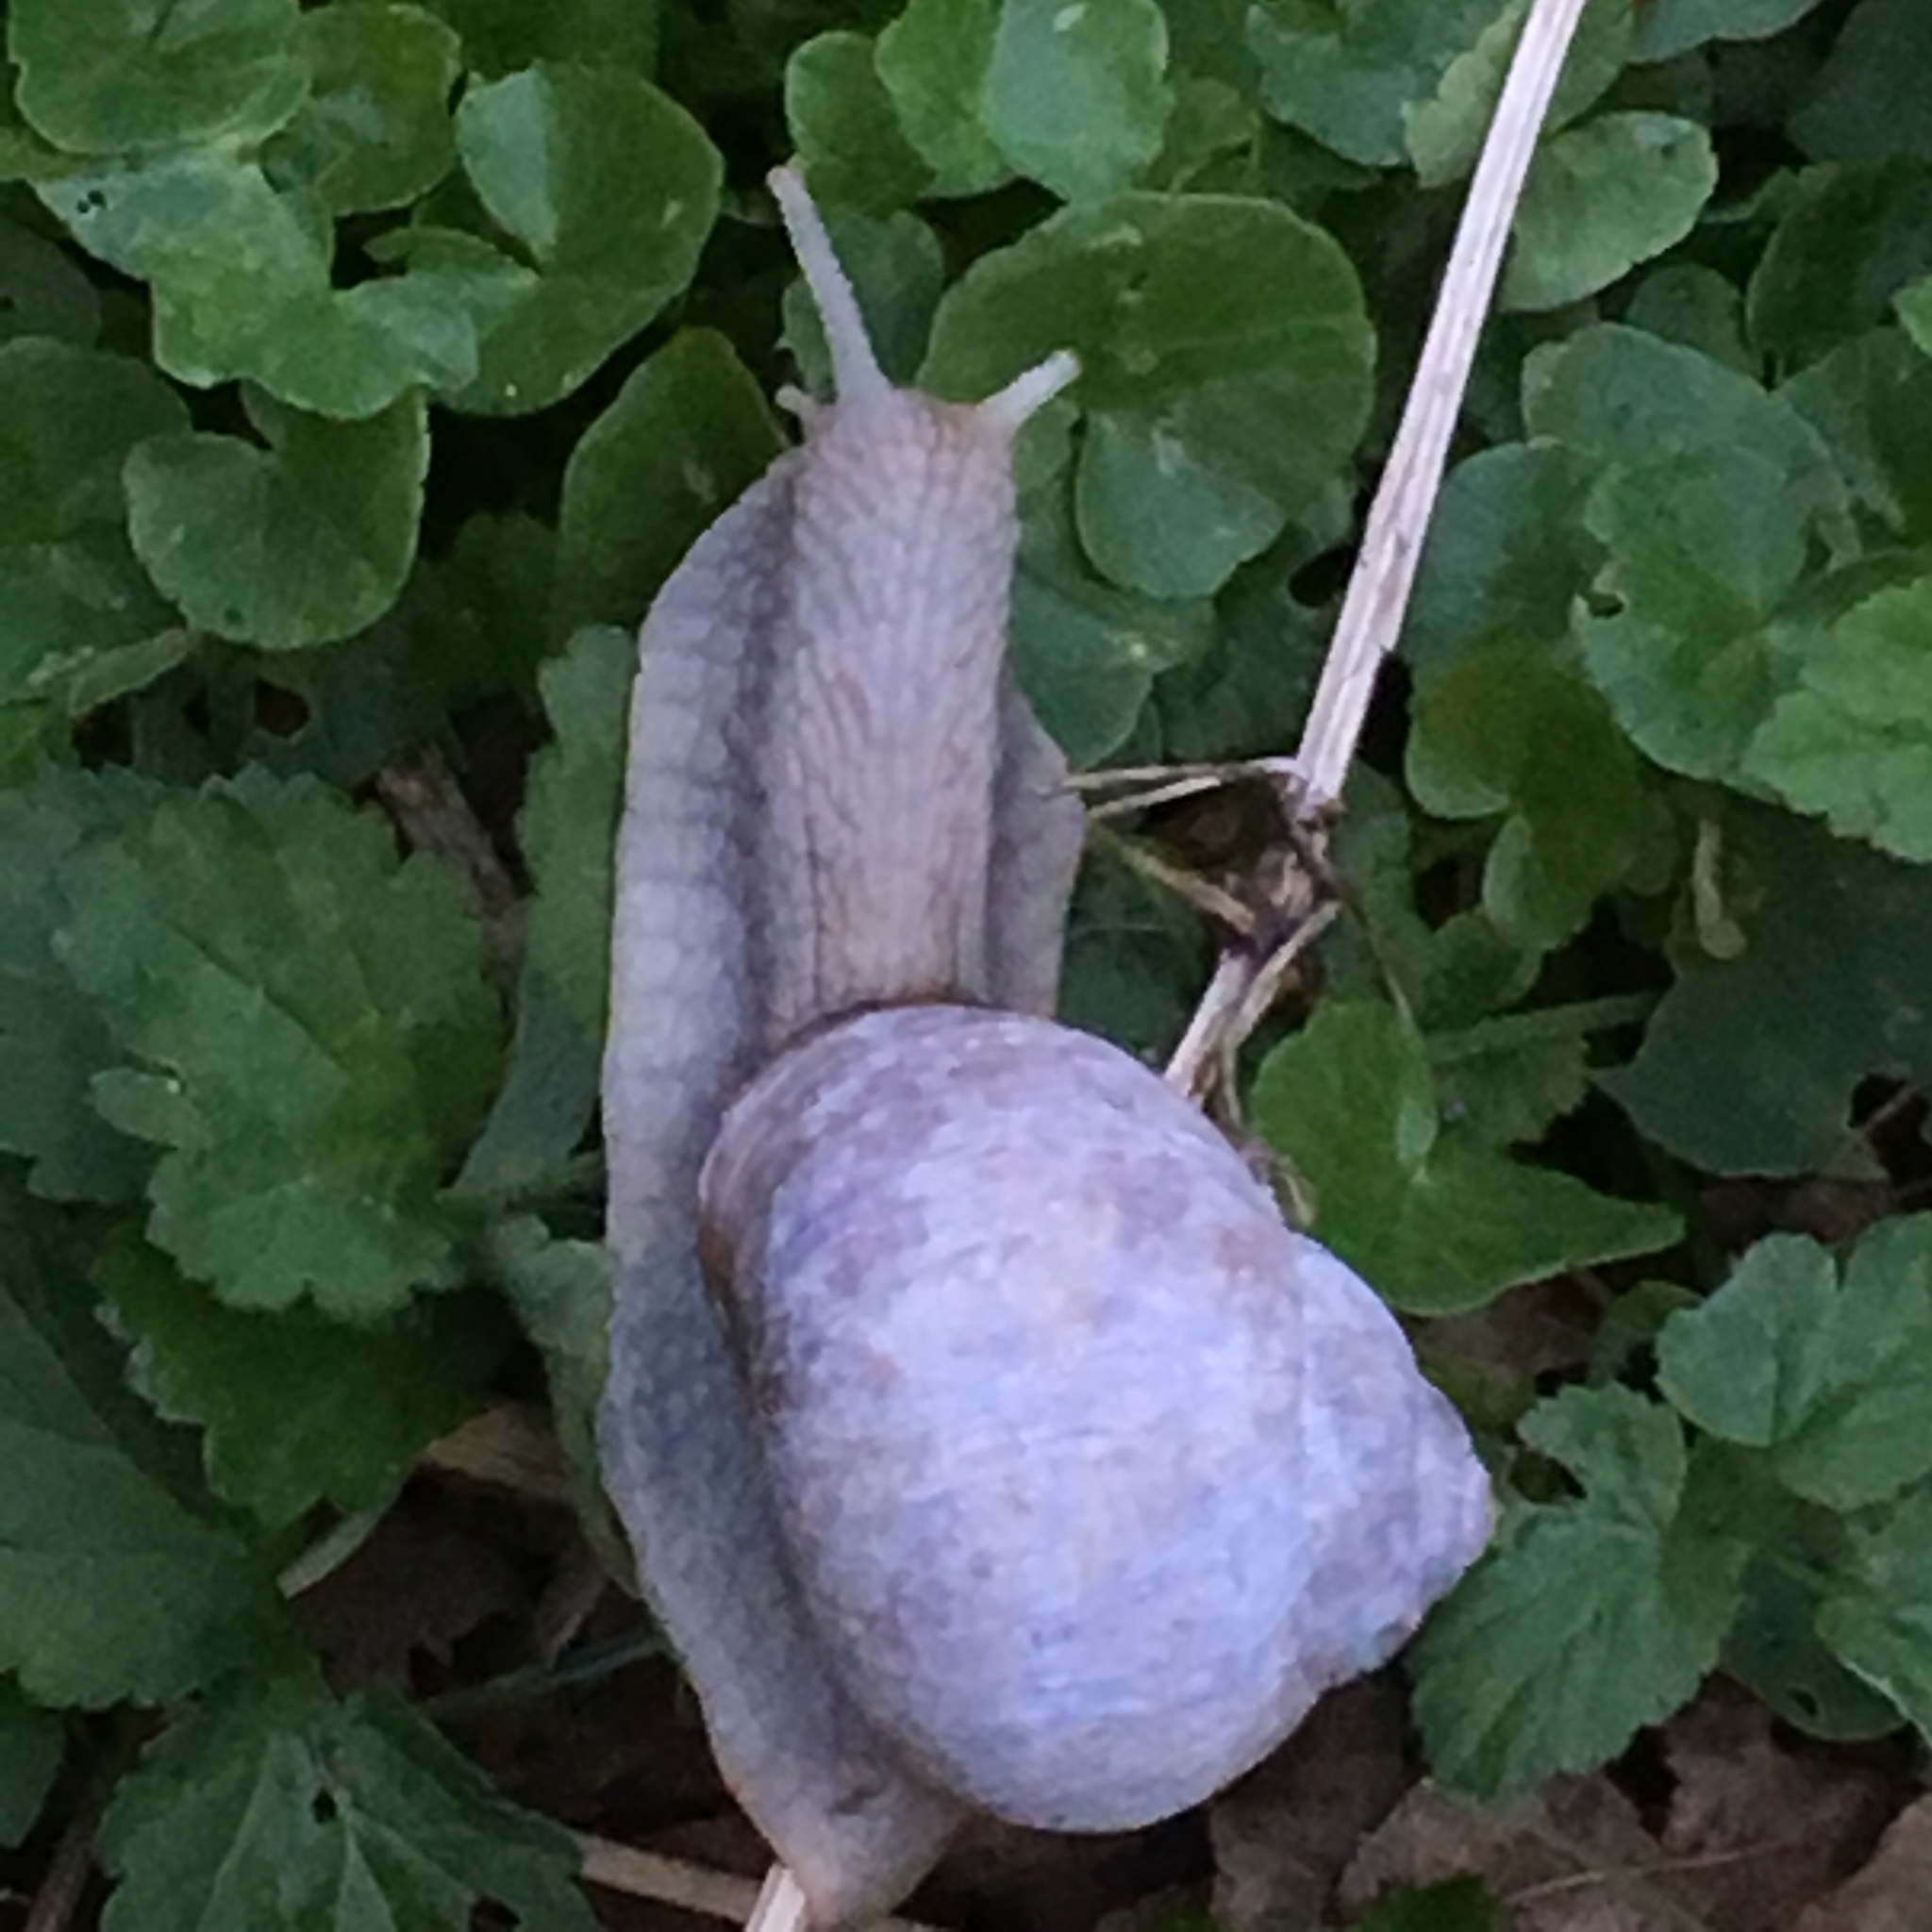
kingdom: Animalia
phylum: Mollusca
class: Gastropoda
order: Stylommatophora
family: Helicidae
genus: Helix
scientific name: Helix pomatia
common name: Roman snail
